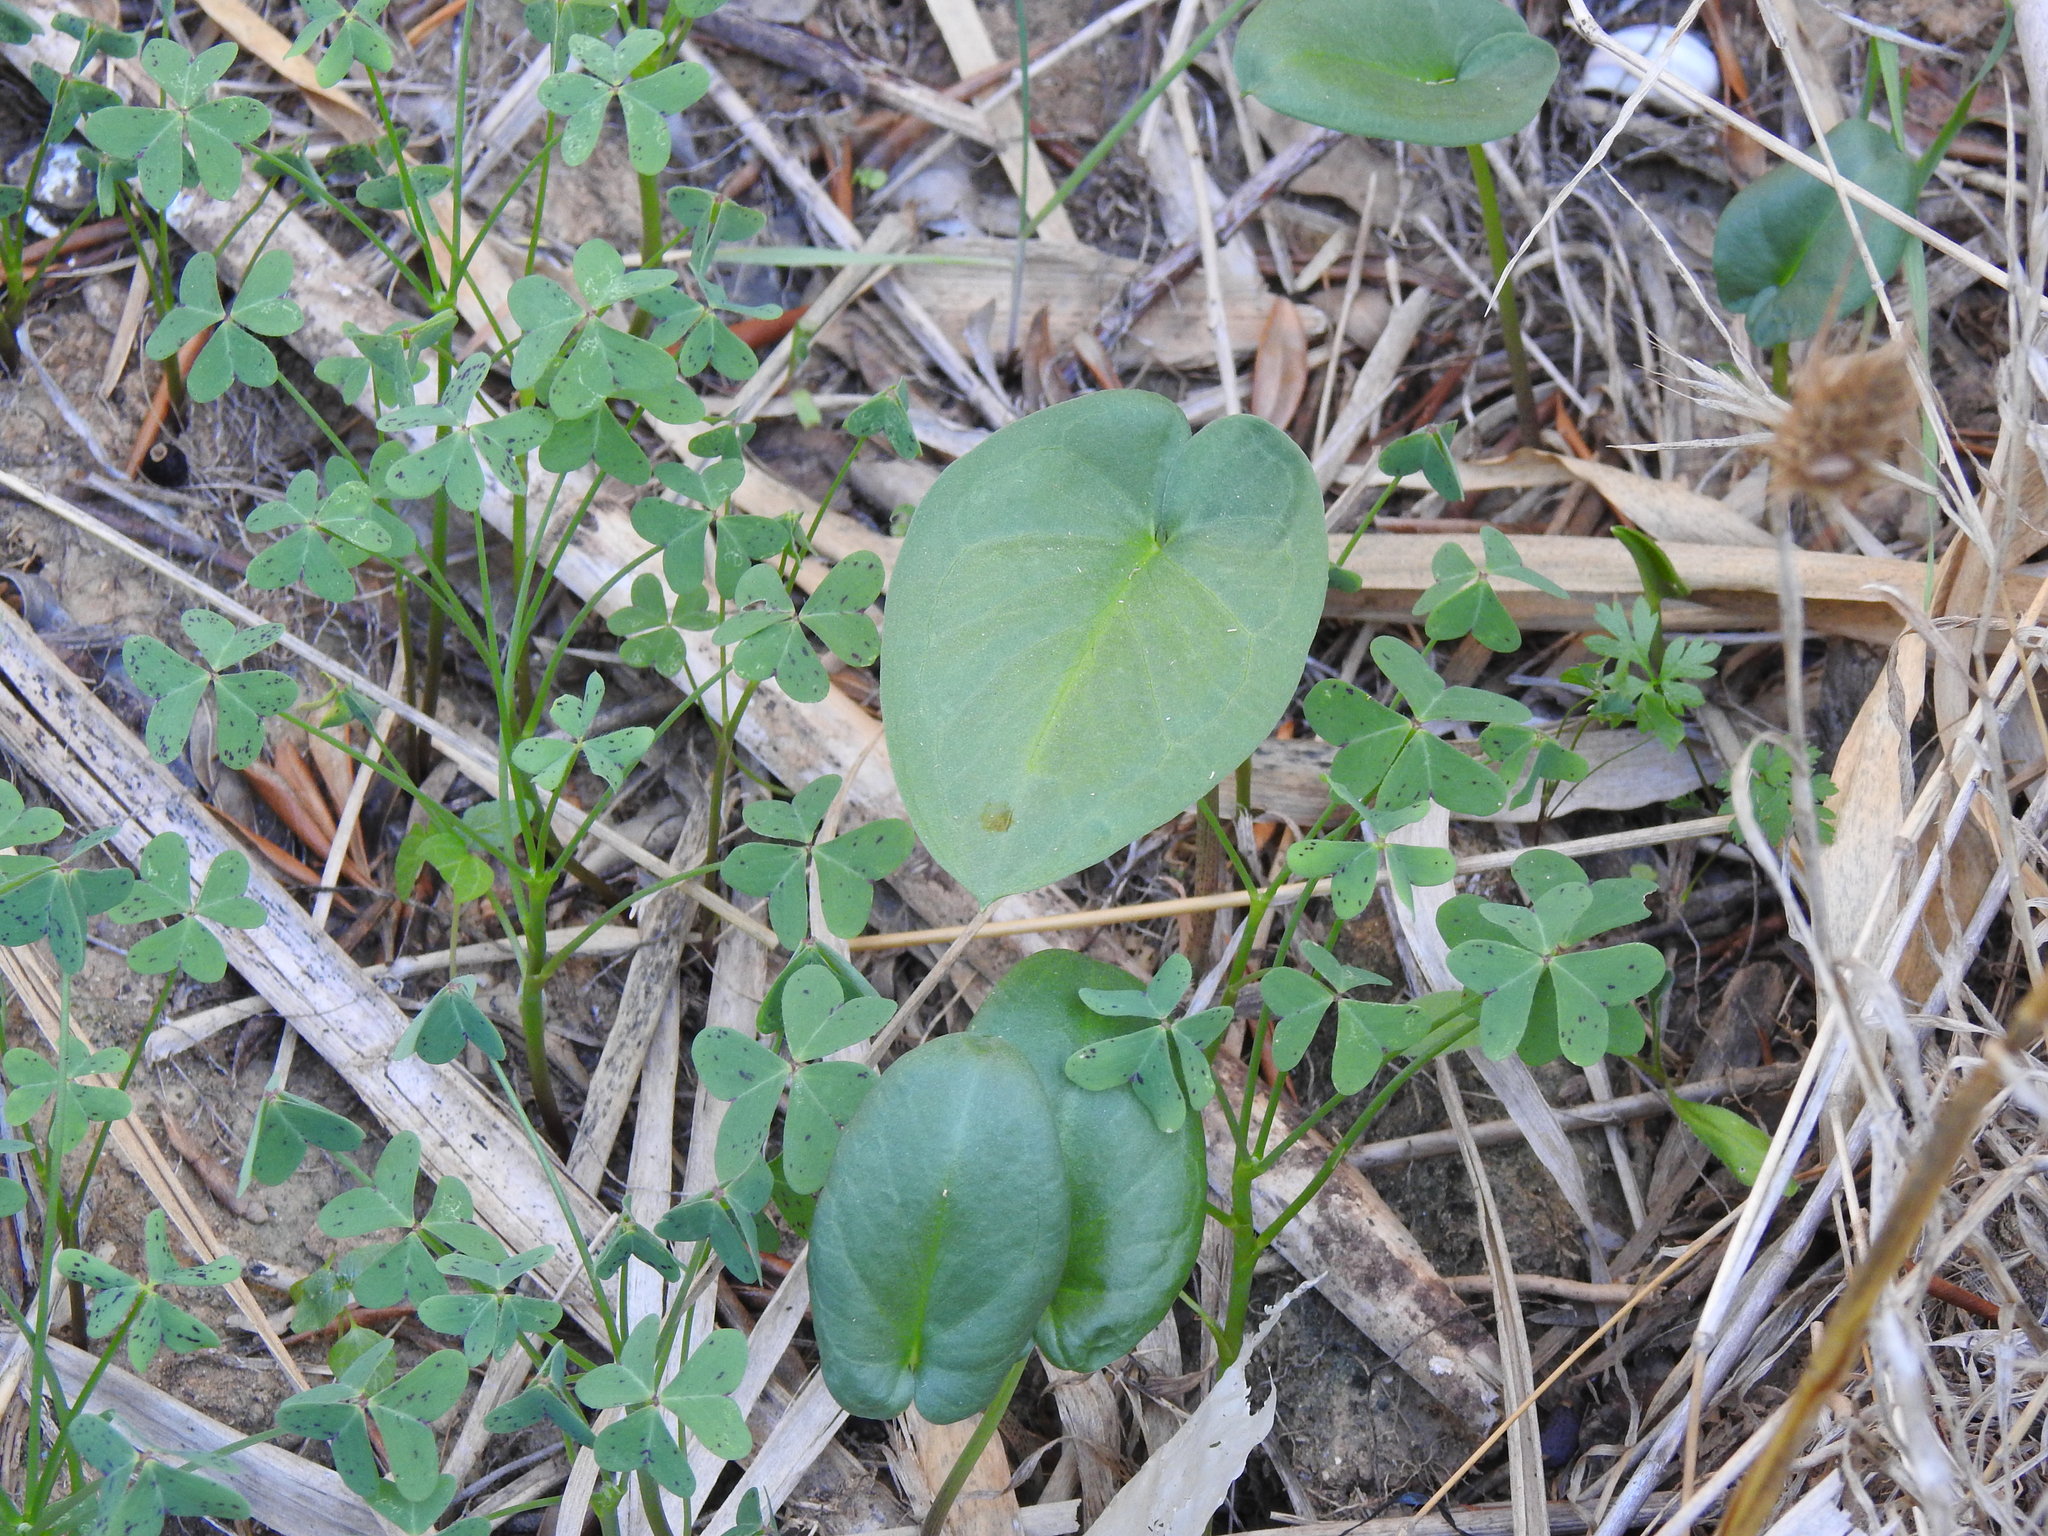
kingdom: Plantae
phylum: Tracheophyta
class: Liliopsida
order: Alismatales
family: Araceae
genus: Arisarum
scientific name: Arisarum simorrhinum
